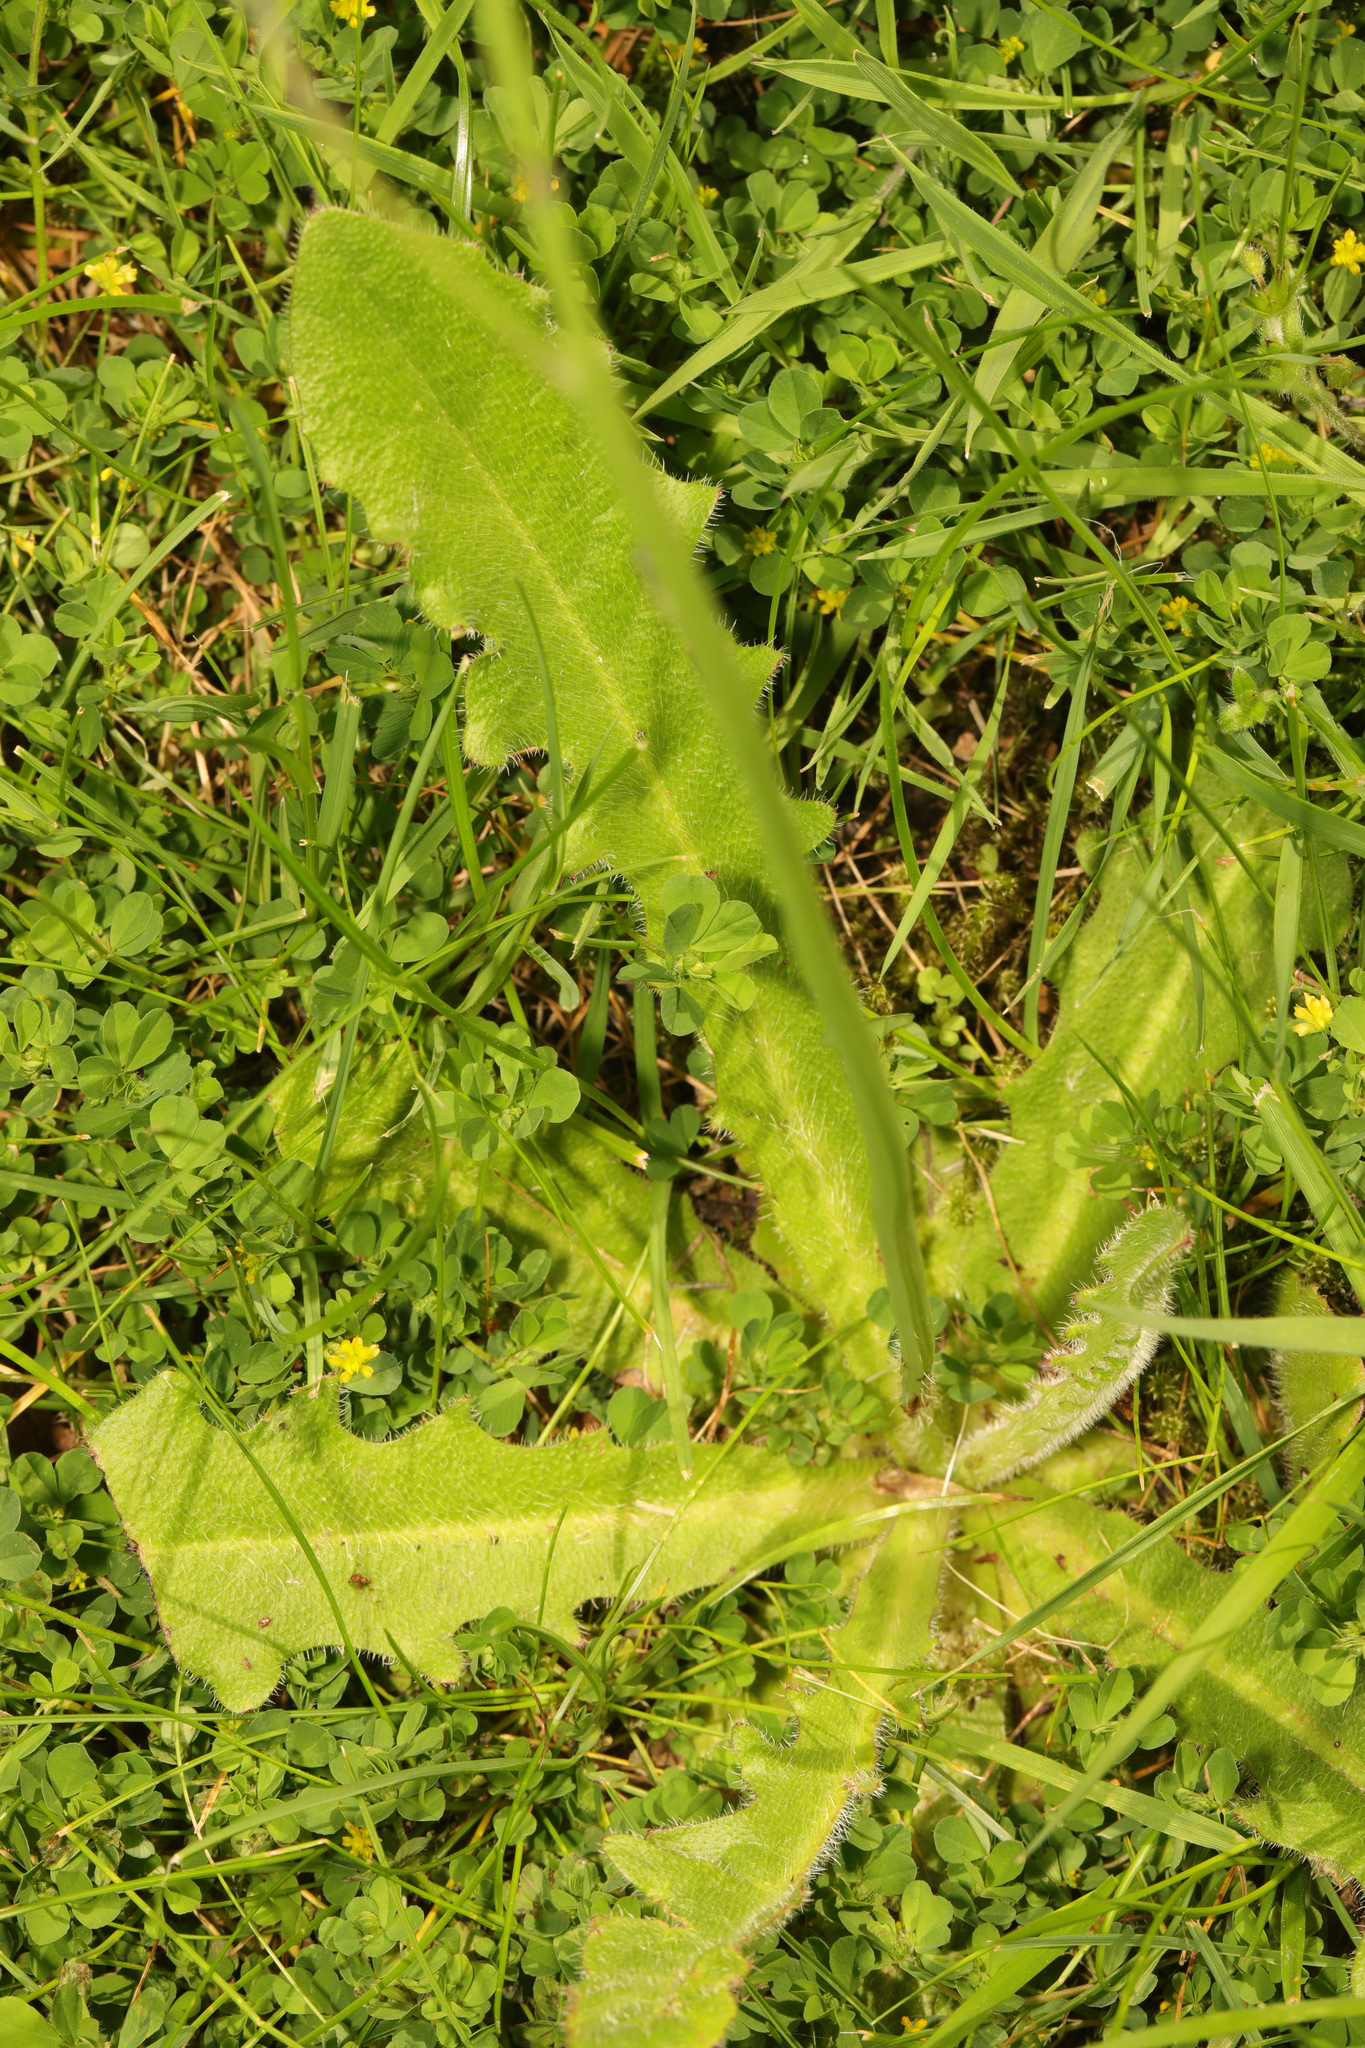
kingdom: Plantae
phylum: Tracheophyta
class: Magnoliopsida
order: Asterales
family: Asteraceae
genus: Hypochaeris
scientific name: Hypochaeris radicata
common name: Flatweed
